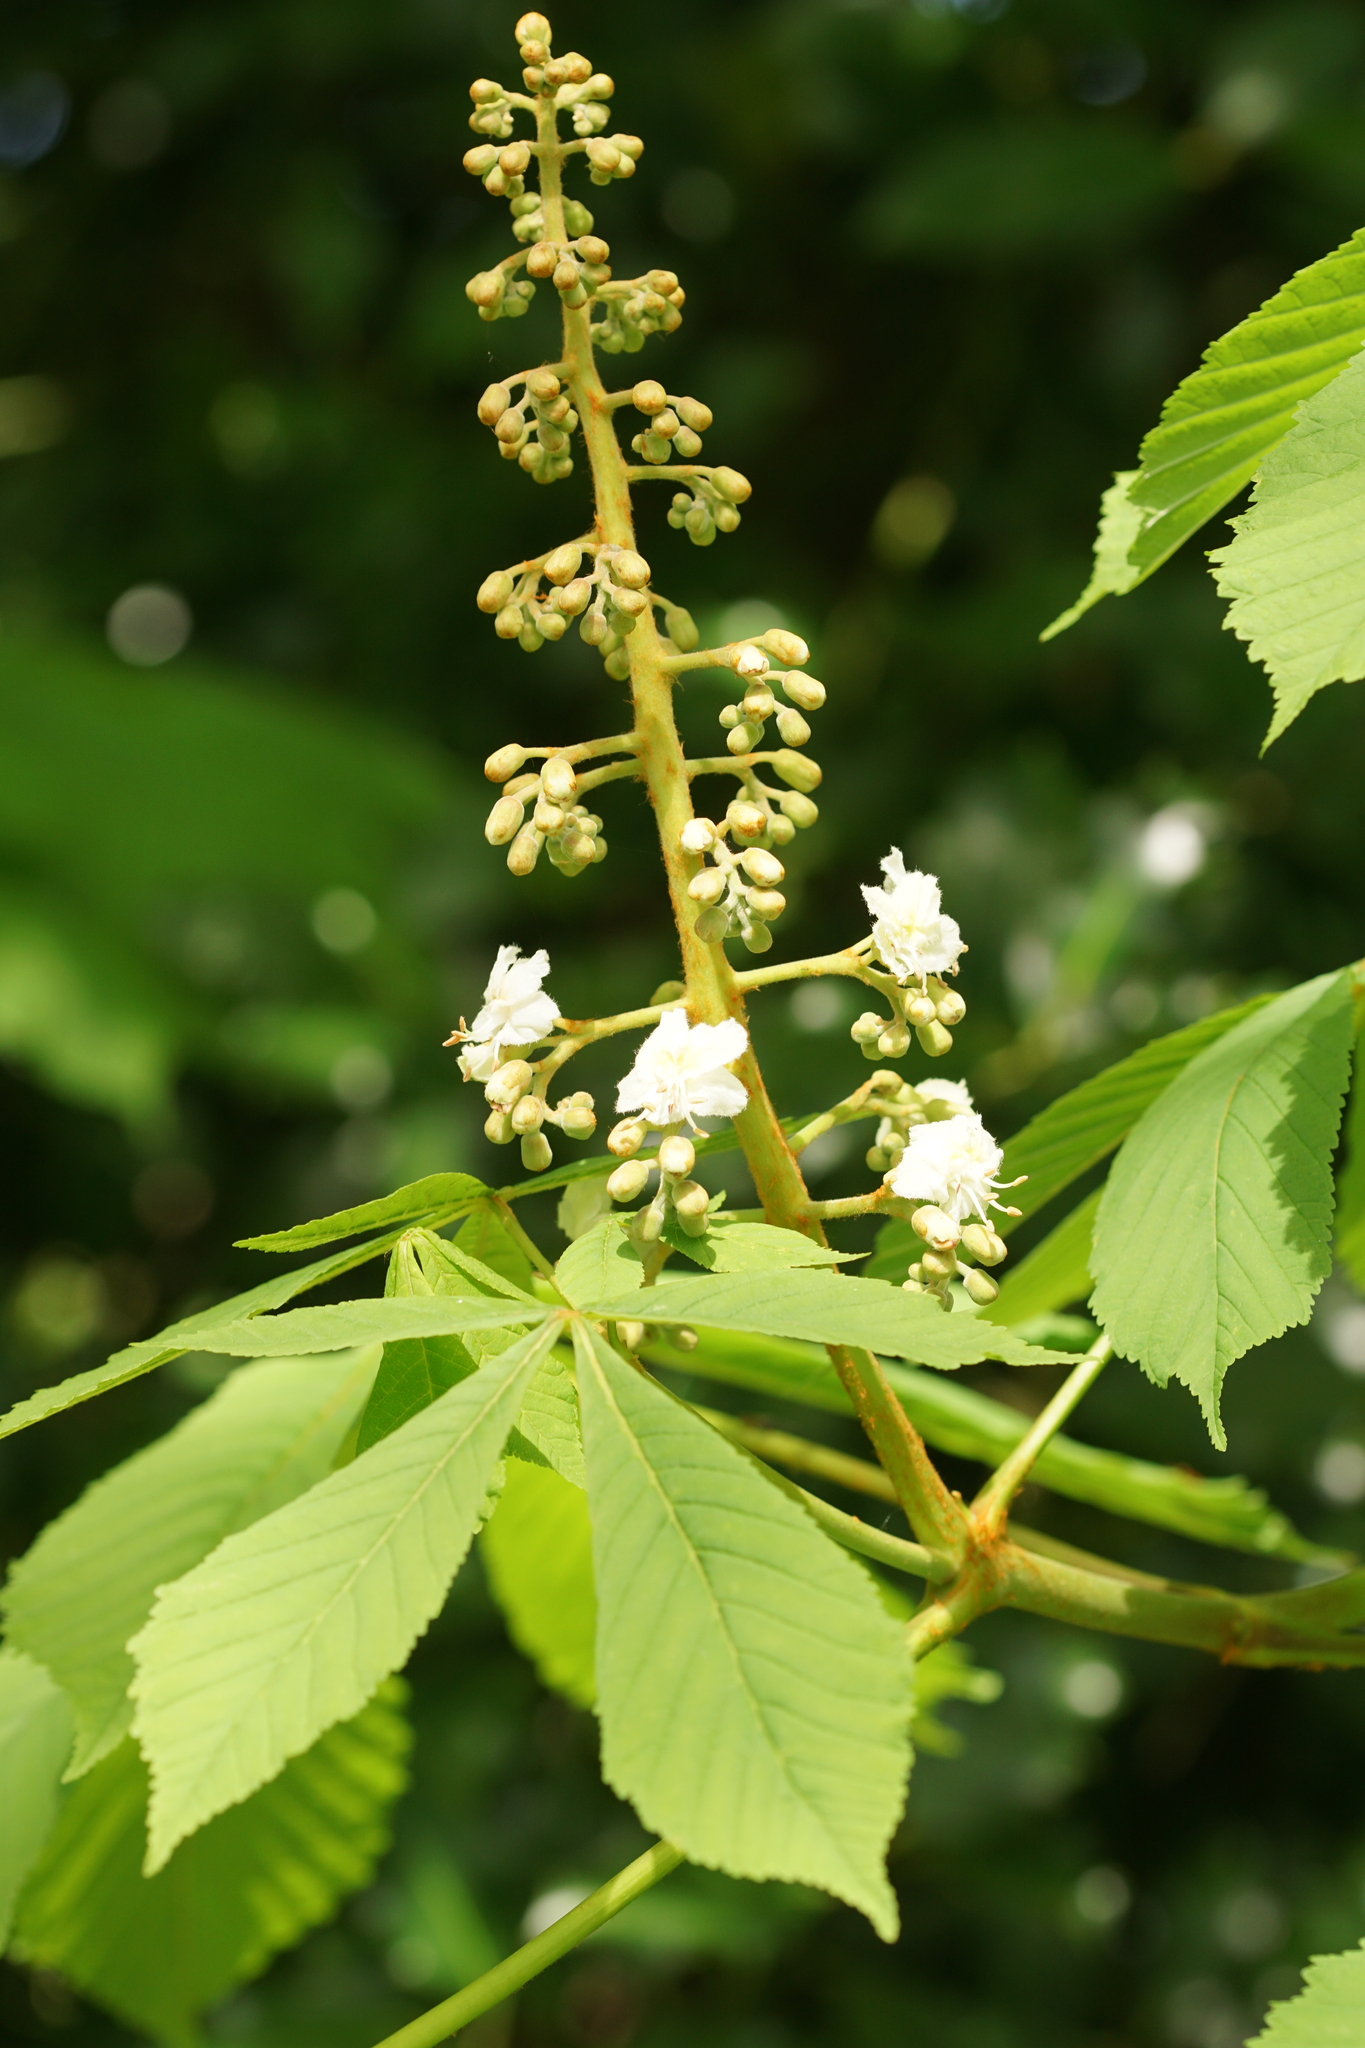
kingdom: Plantae
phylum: Tracheophyta
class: Magnoliopsida
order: Sapindales
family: Sapindaceae
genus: Aesculus
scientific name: Aesculus hippocastanum
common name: Horse-chestnut
